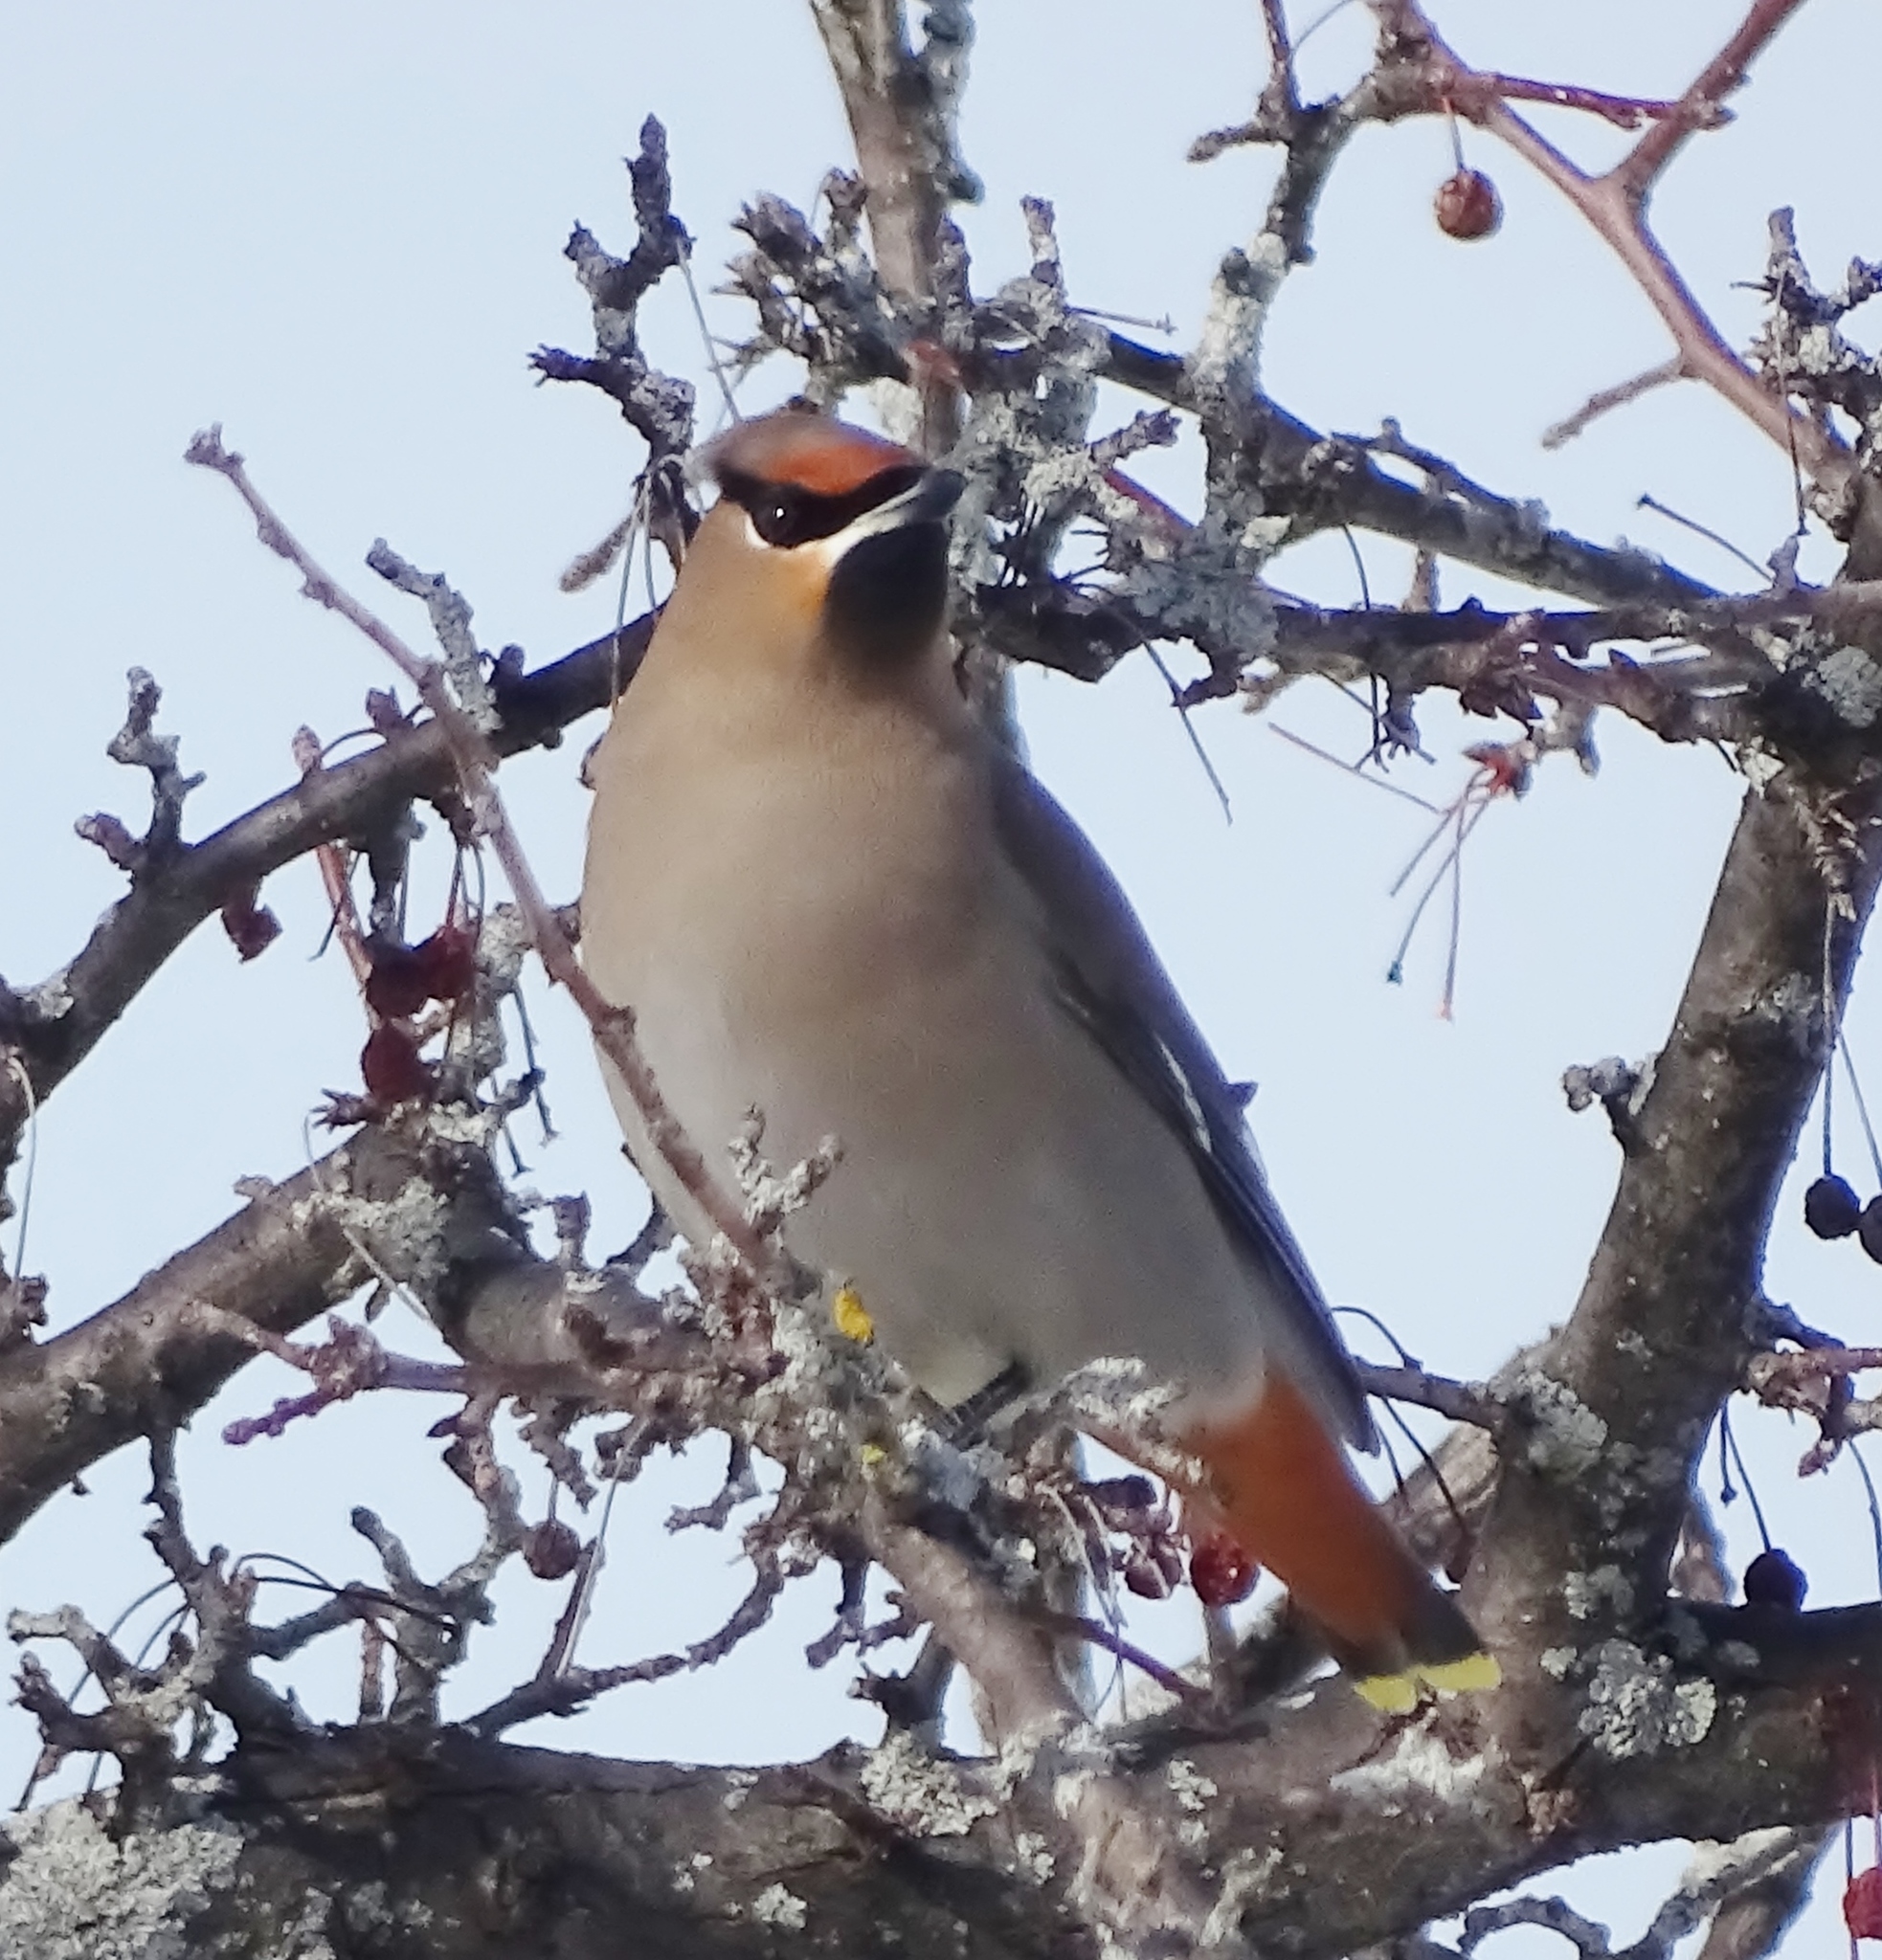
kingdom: Animalia
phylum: Chordata
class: Aves
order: Passeriformes
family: Bombycillidae
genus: Bombycilla
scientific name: Bombycilla garrulus
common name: Bohemian waxwing
